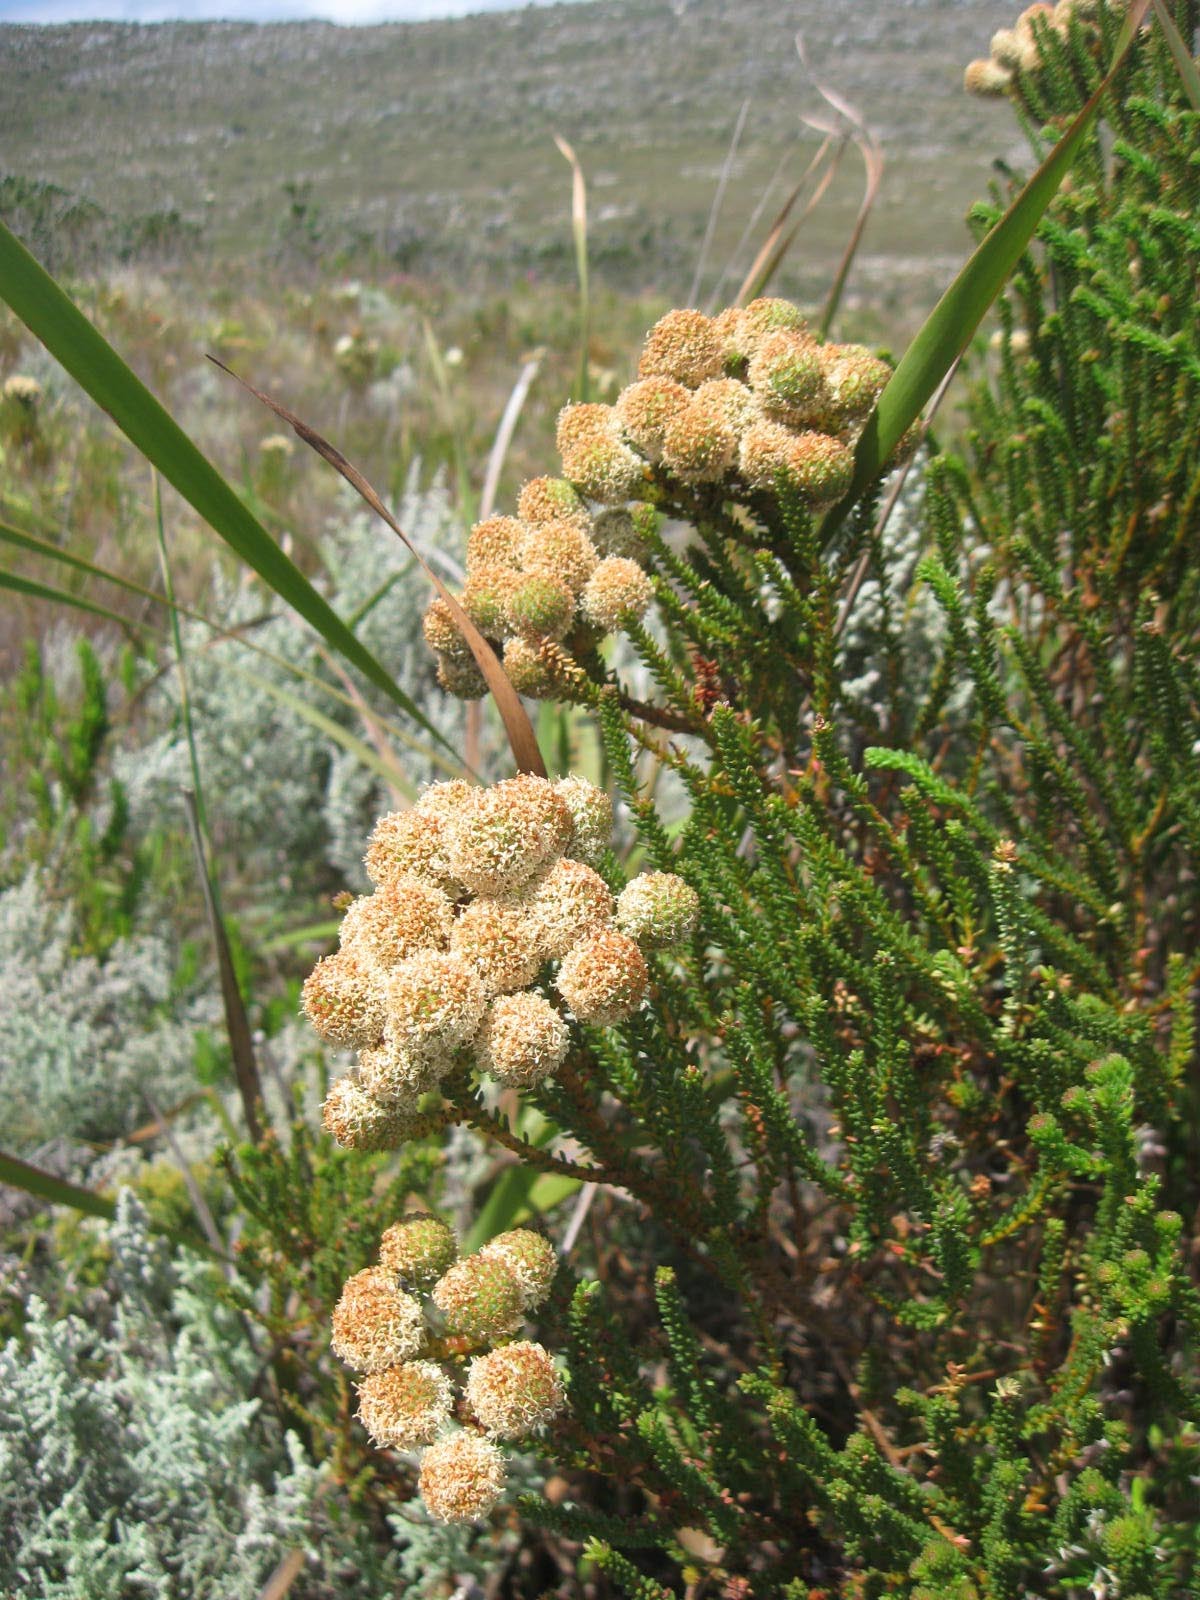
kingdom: Plantae
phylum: Tracheophyta
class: Magnoliopsida
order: Bruniales
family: Bruniaceae
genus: Berzelia
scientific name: Berzelia abrotanoides
